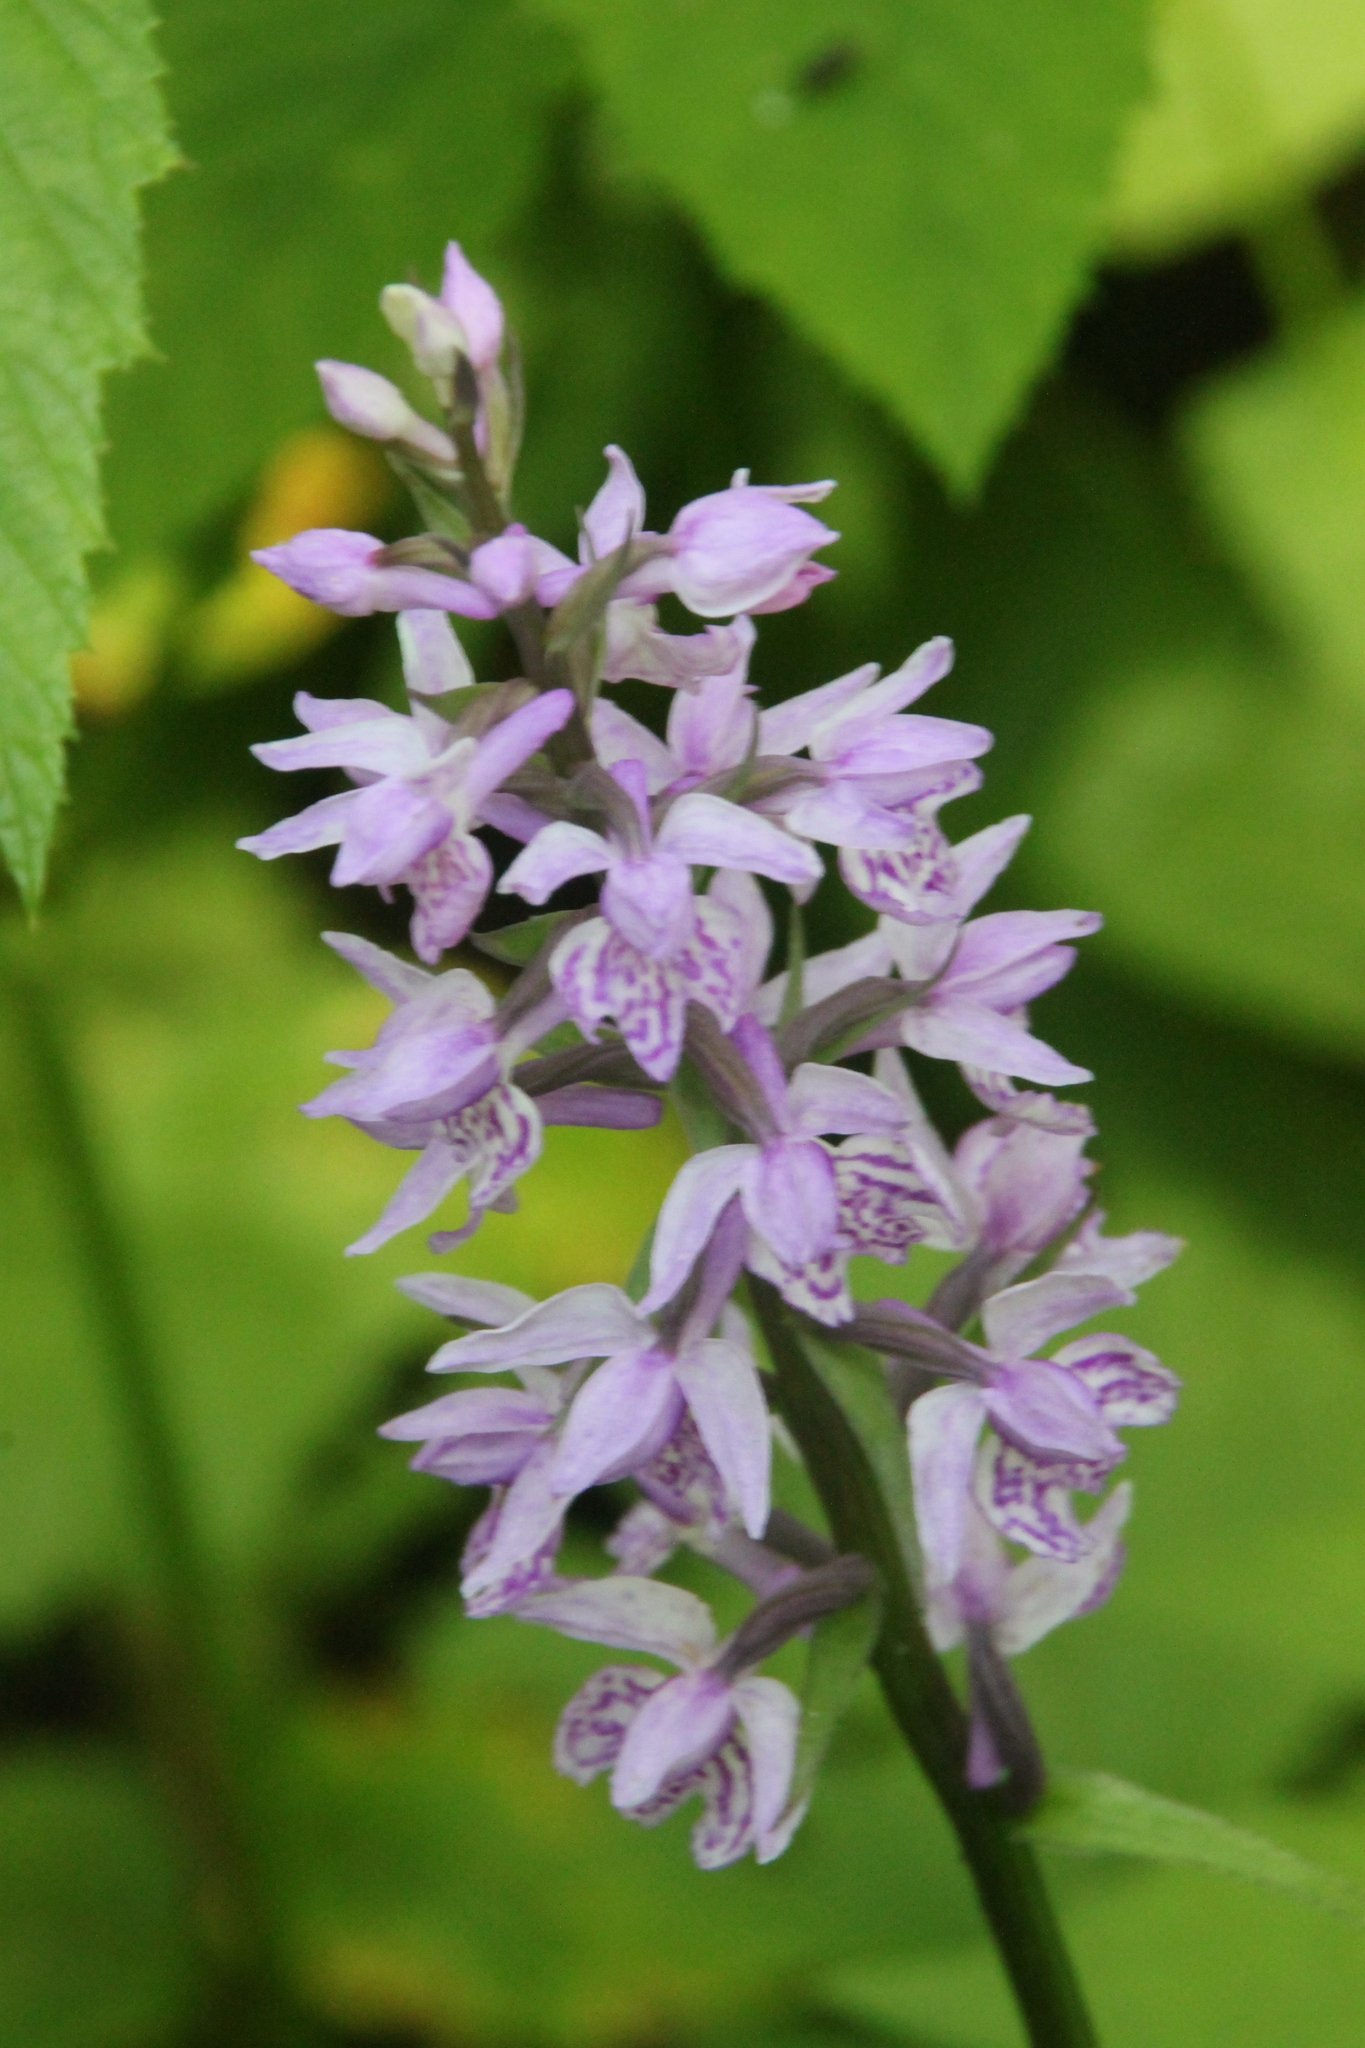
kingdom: Plantae
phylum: Tracheophyta
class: Liliopsida
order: Asparagales
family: Orchidaceae
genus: Dactylorhiza
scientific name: Dactylorhiza maculata
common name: Heath spotted-orchid
